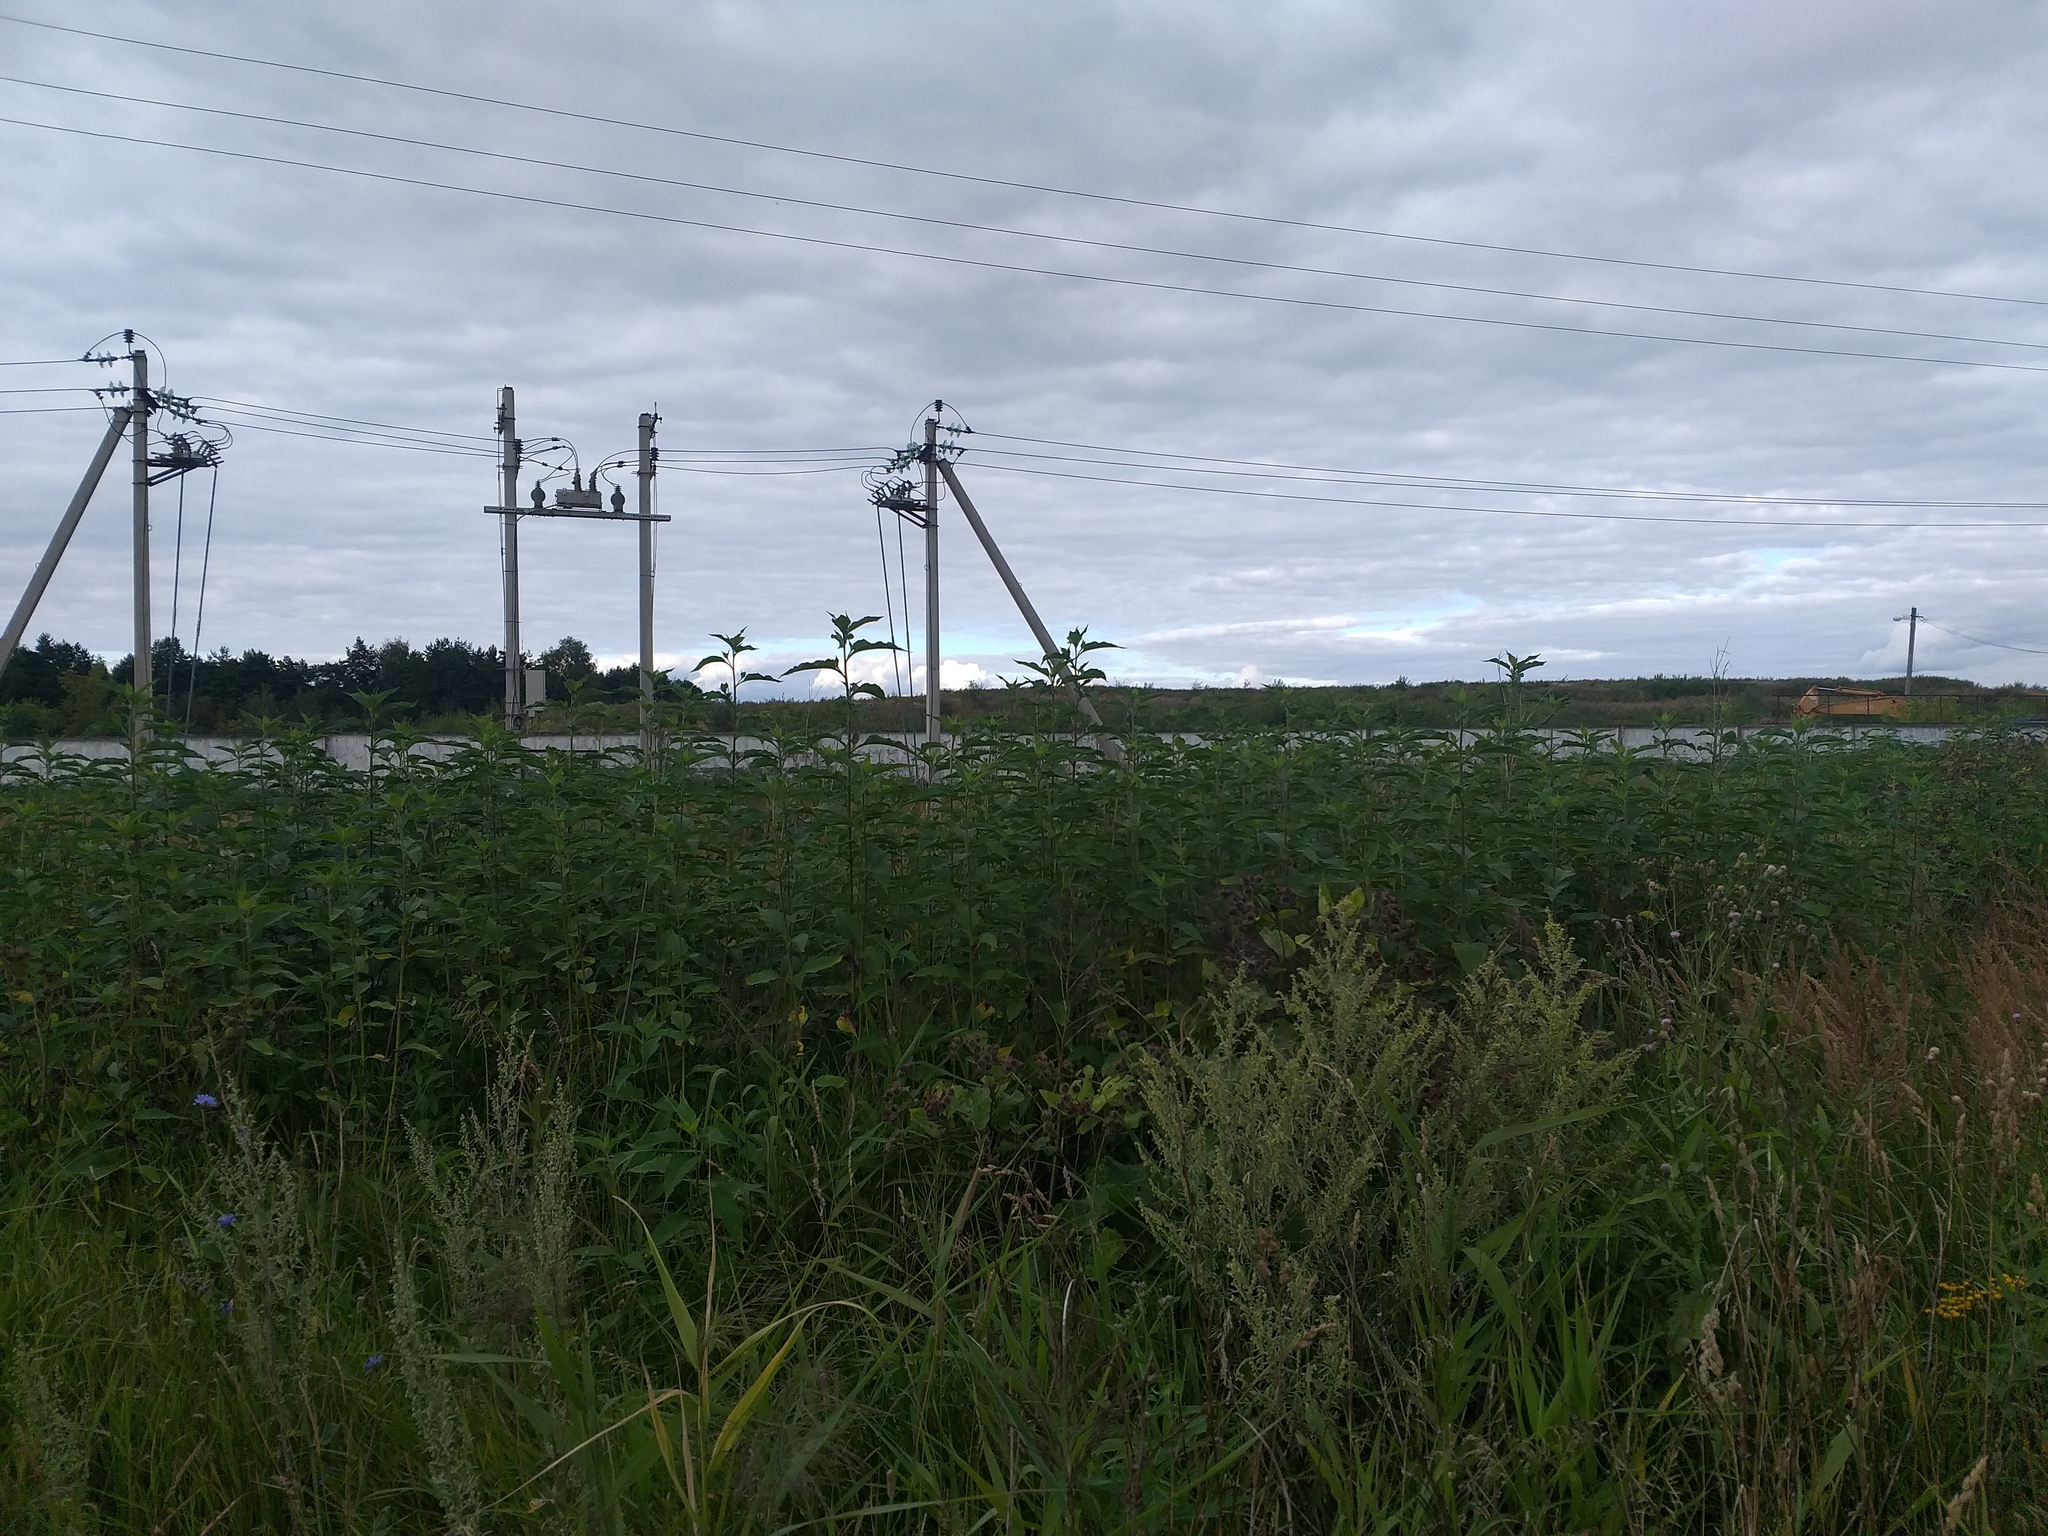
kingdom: Plantae
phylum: Tracheophyta
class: Magnoliopsida
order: Asterales
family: Asteraceae
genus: Helianthus
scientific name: Helianthus tuberosus
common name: Jerusalem artichoke
